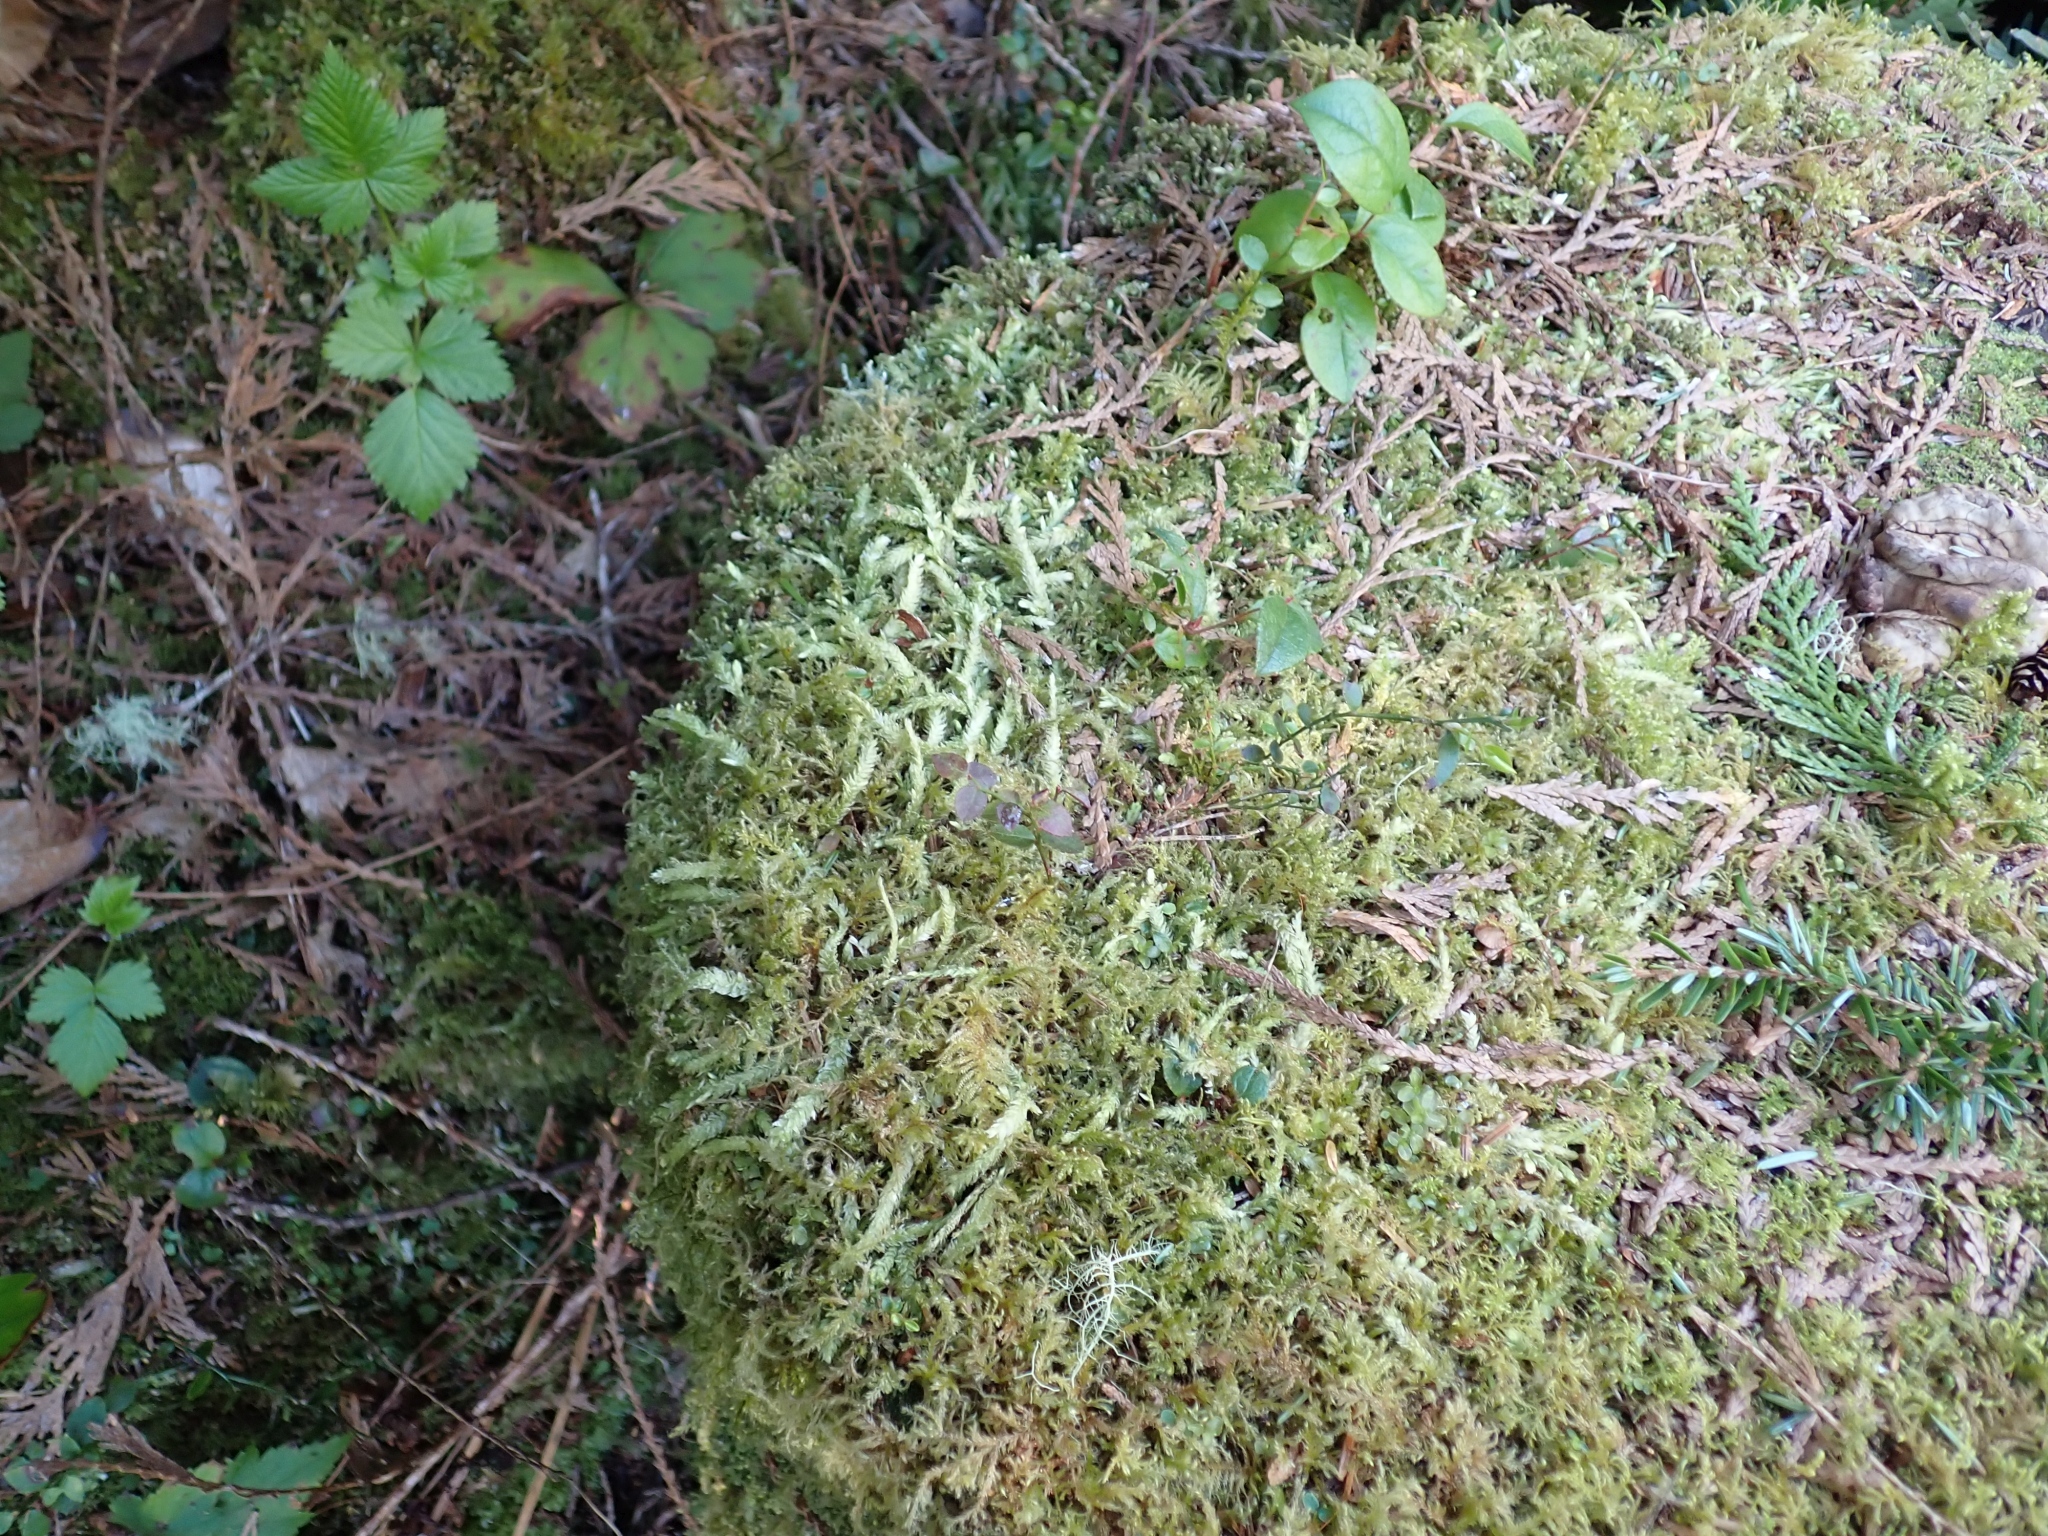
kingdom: Plantae
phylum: Bryophyta
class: Bryopsida
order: Hypnales
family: Plagiotheciaceae
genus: Plagiothecium
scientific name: Plagiothecium undulatum
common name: Waved silk-moss
